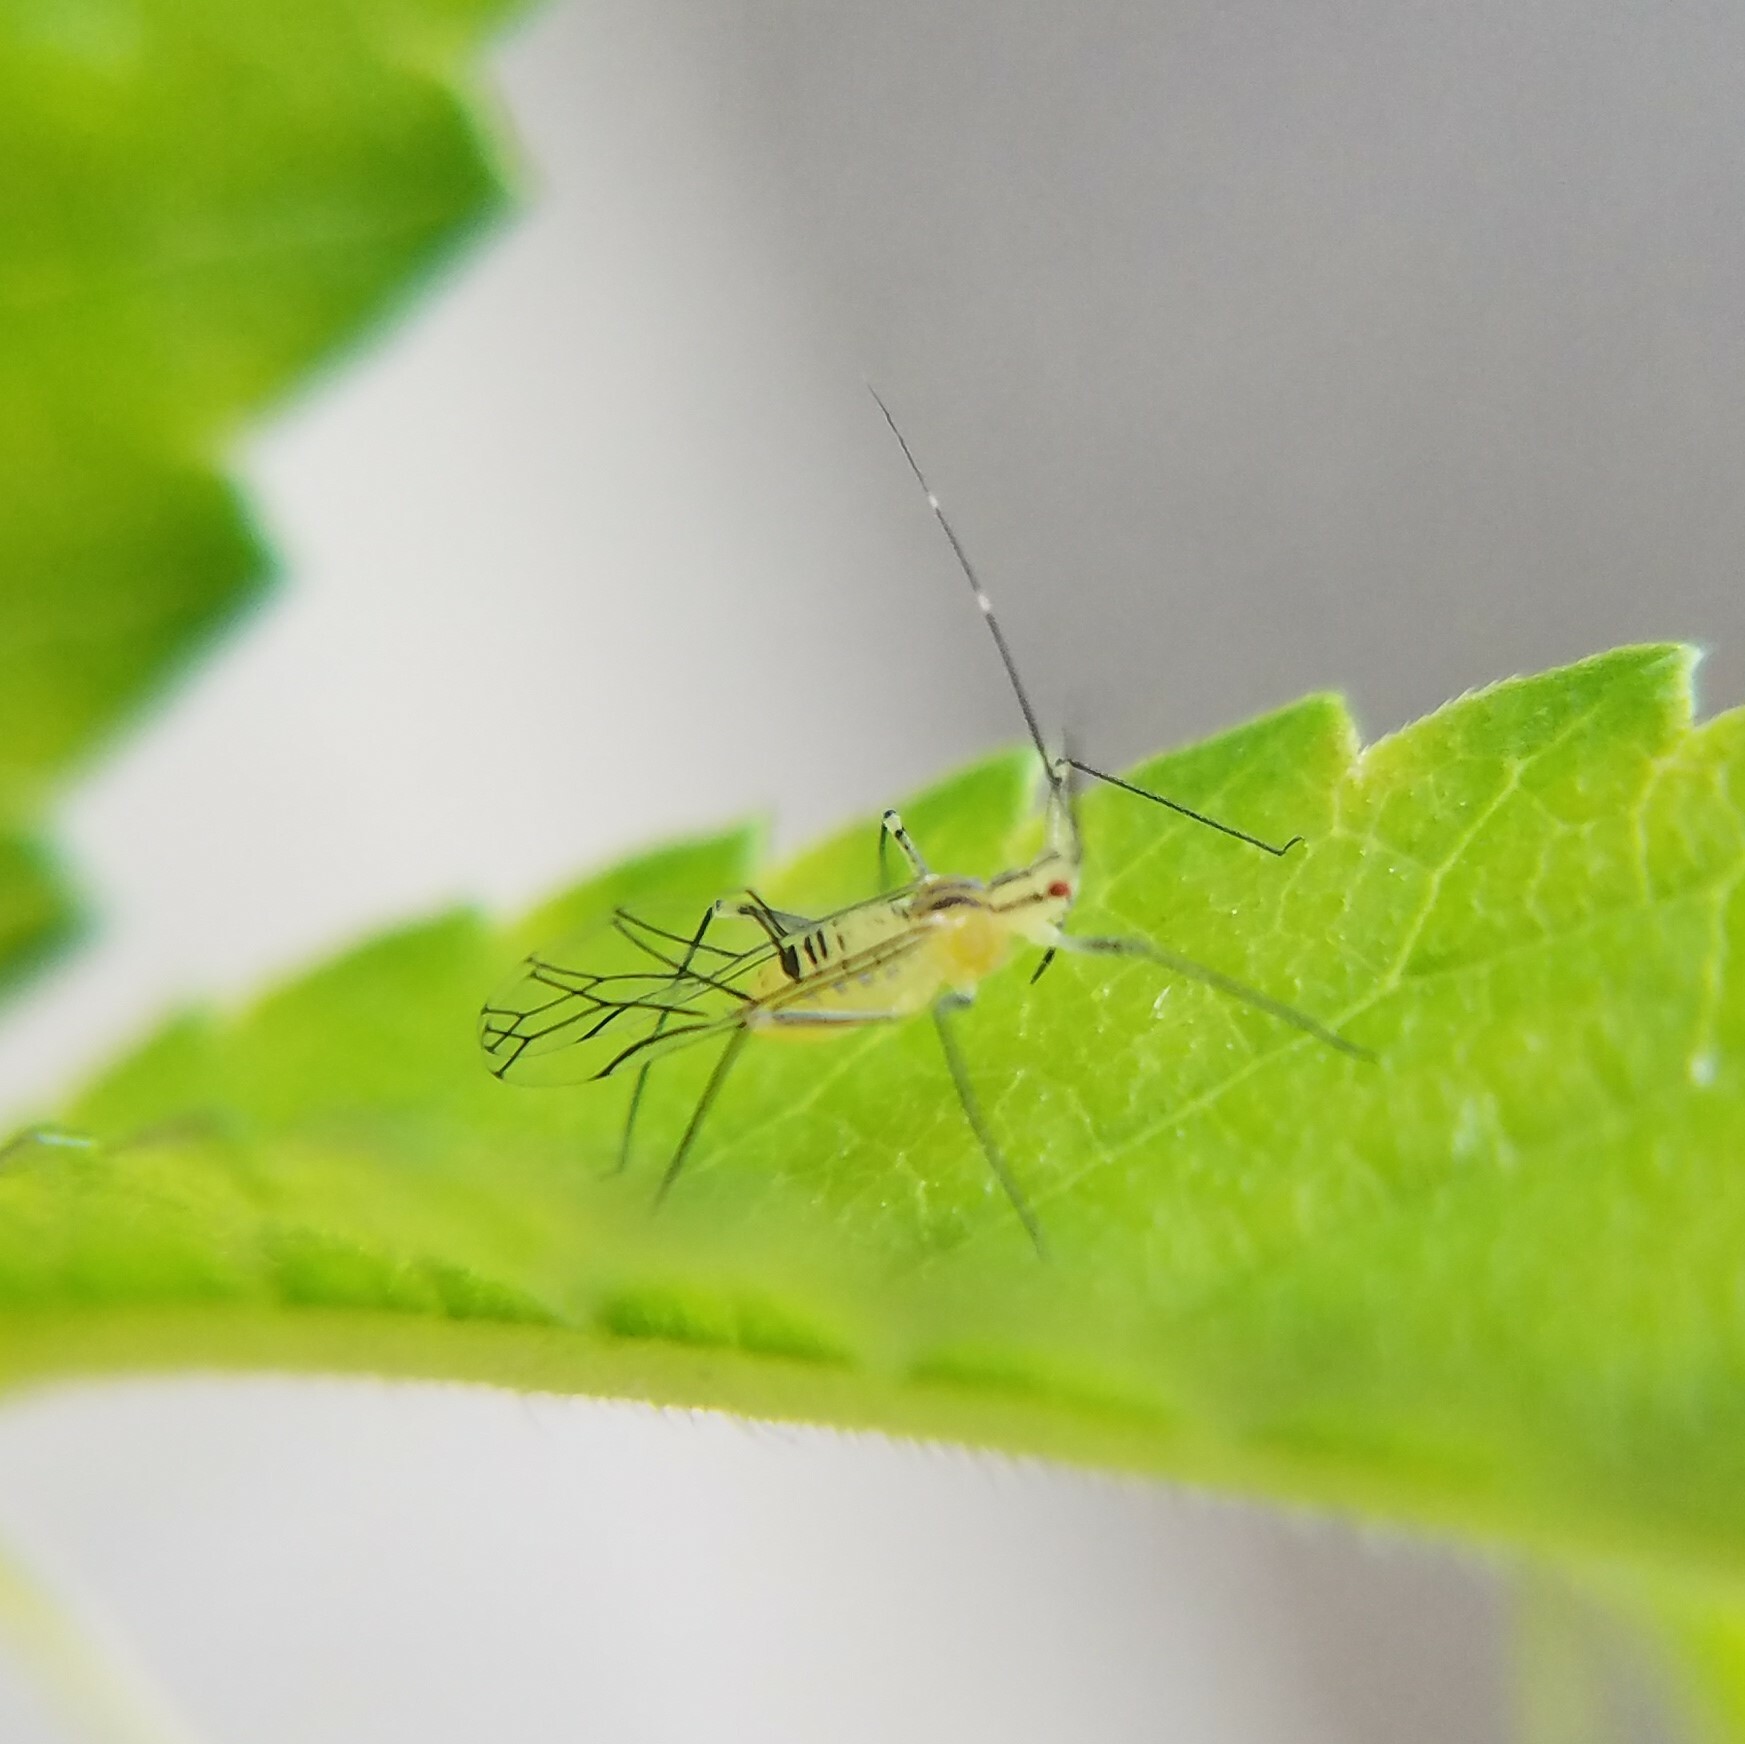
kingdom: Animalia
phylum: Arthropoda
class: Insecta
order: Hemiptera
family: Aphididae
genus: Calaphis
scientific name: Calaphis betulella
